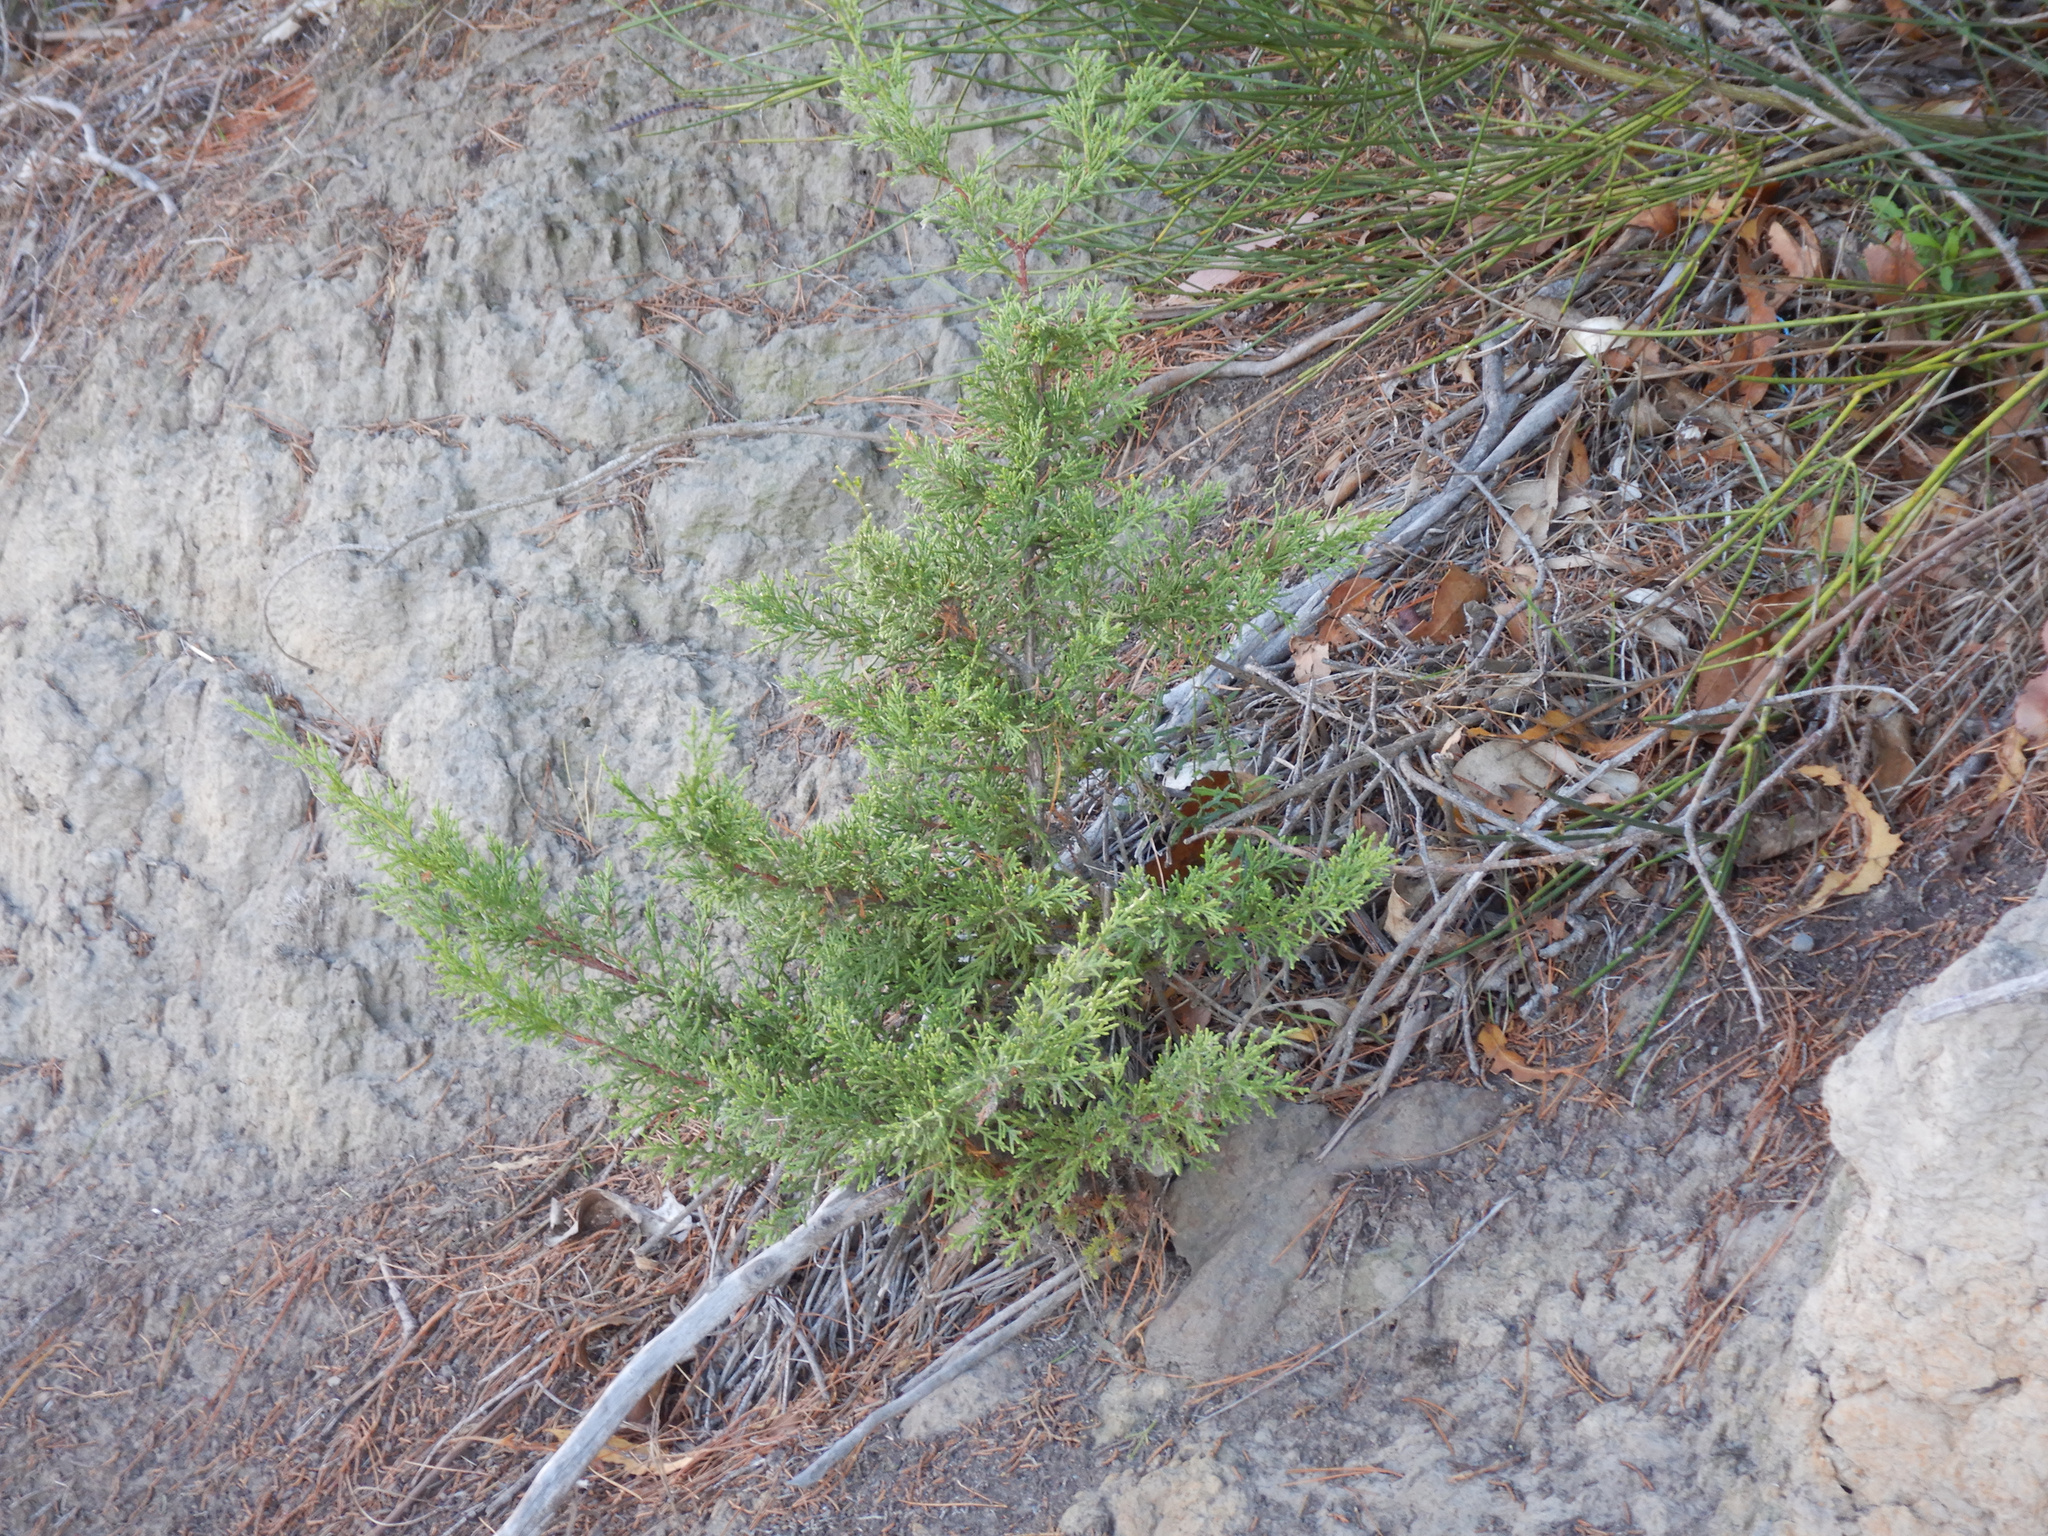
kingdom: Plantae
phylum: Tracheophyta
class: Pinopsida
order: Pinales
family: Cupressaceae
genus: Cupressus
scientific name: Cupressus macrocarpa
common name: Monterey cypress
